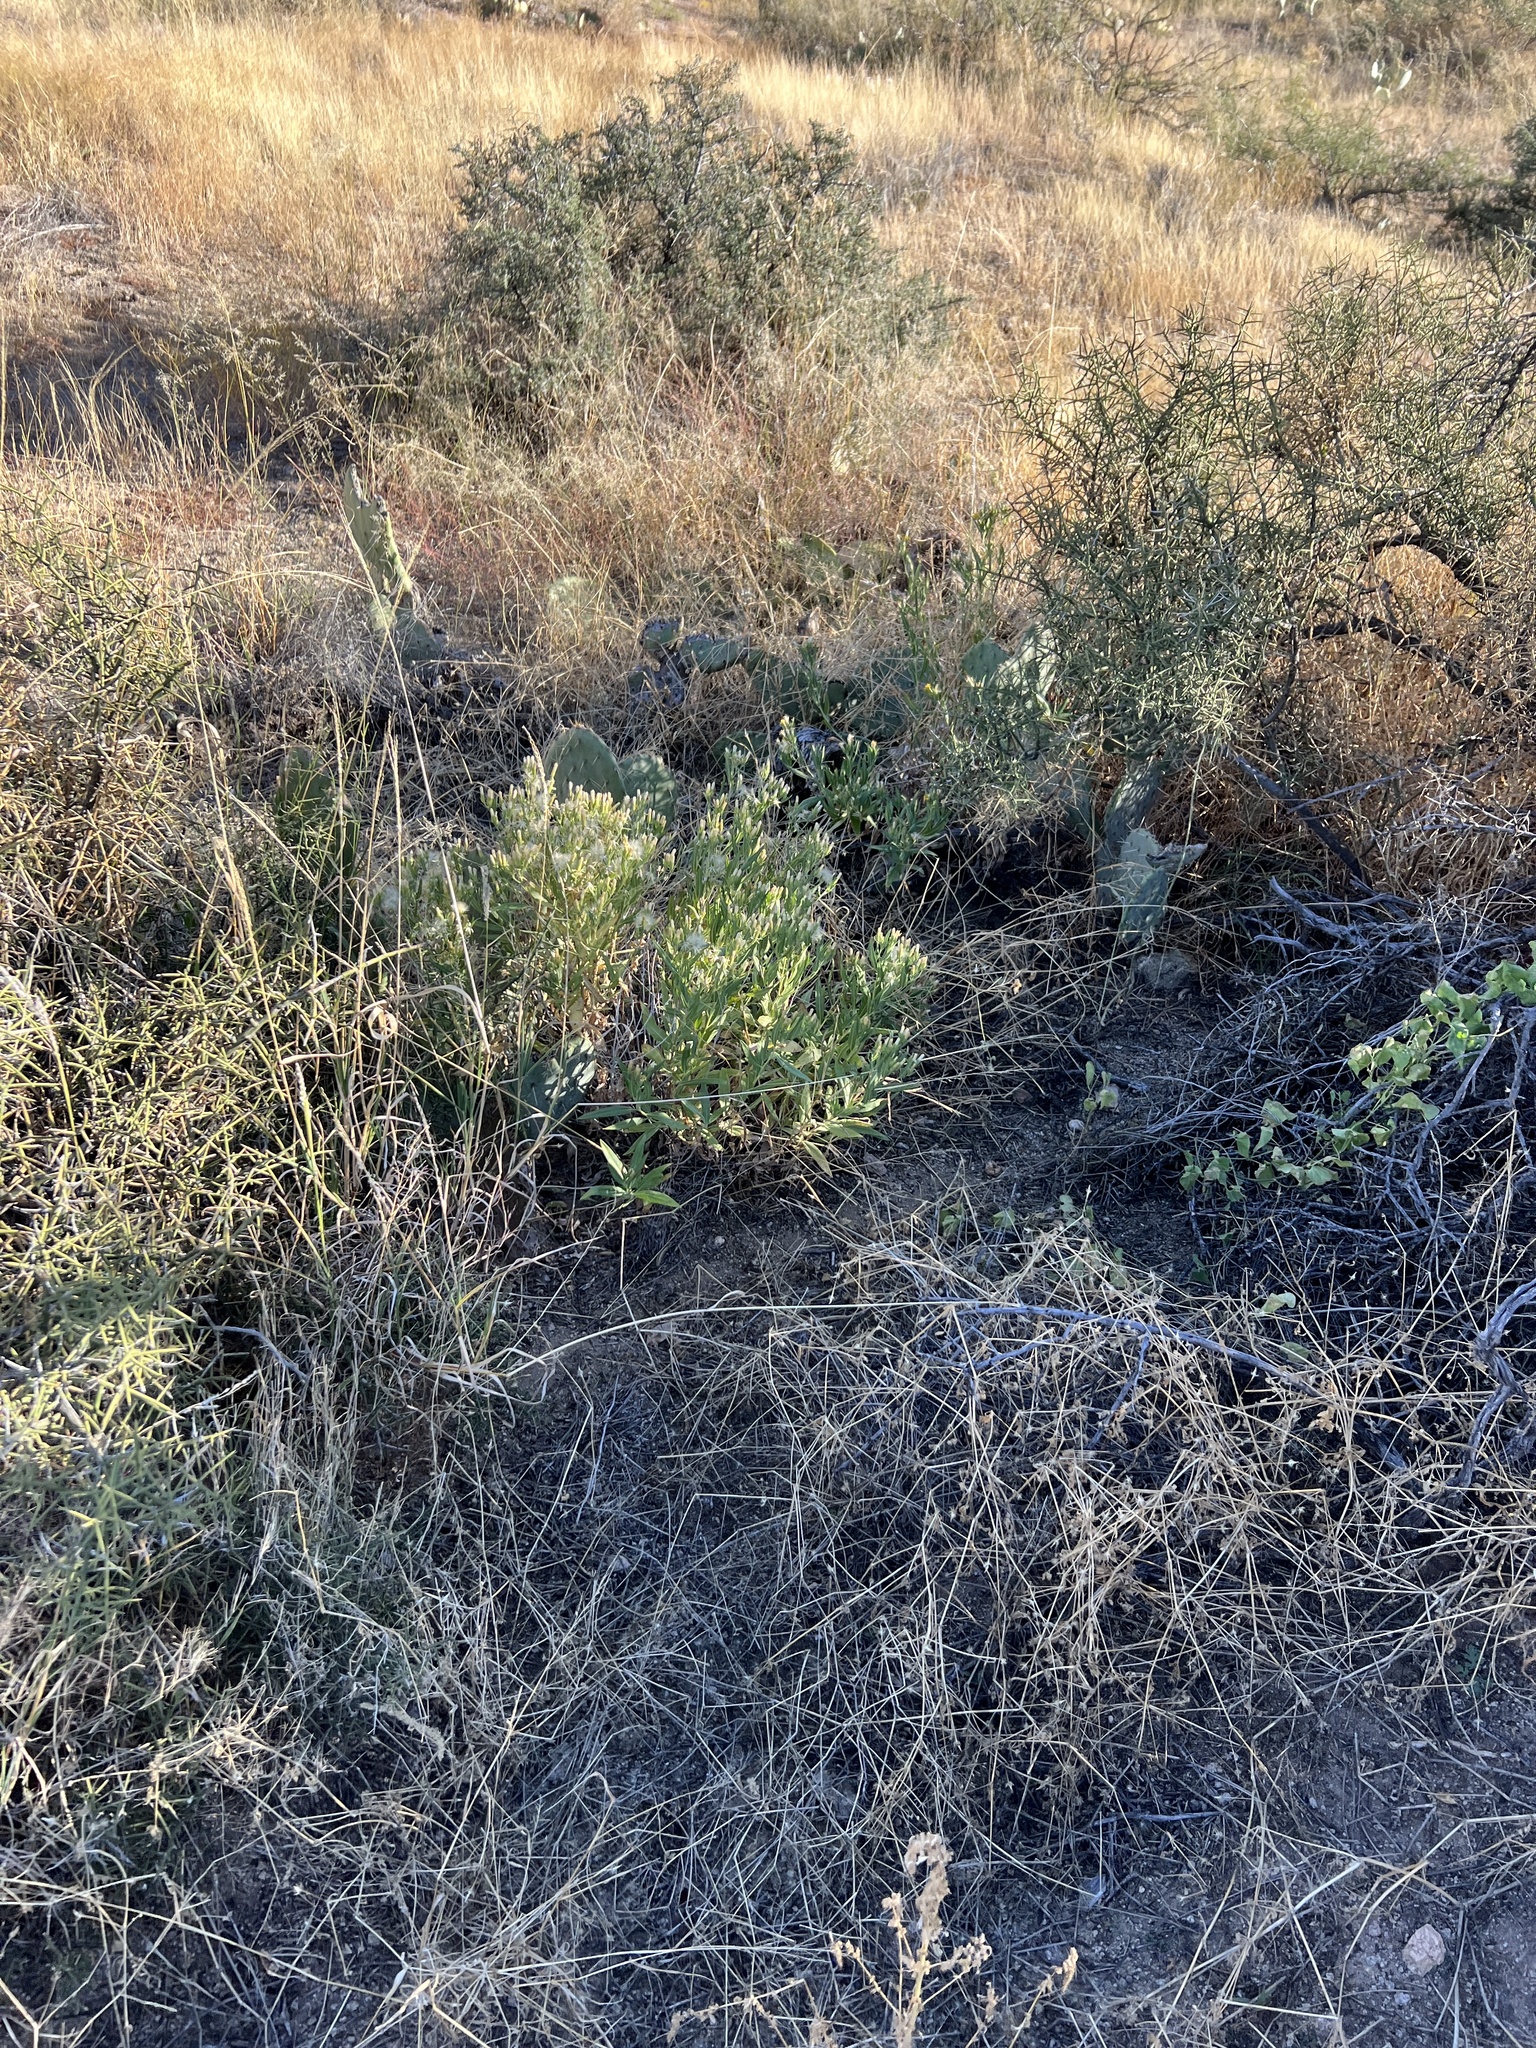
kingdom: Plantae
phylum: Tracheophyta
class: Magnoliopsida
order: Asterales
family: Asteraceae
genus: Trixis
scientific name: Trixis californica
